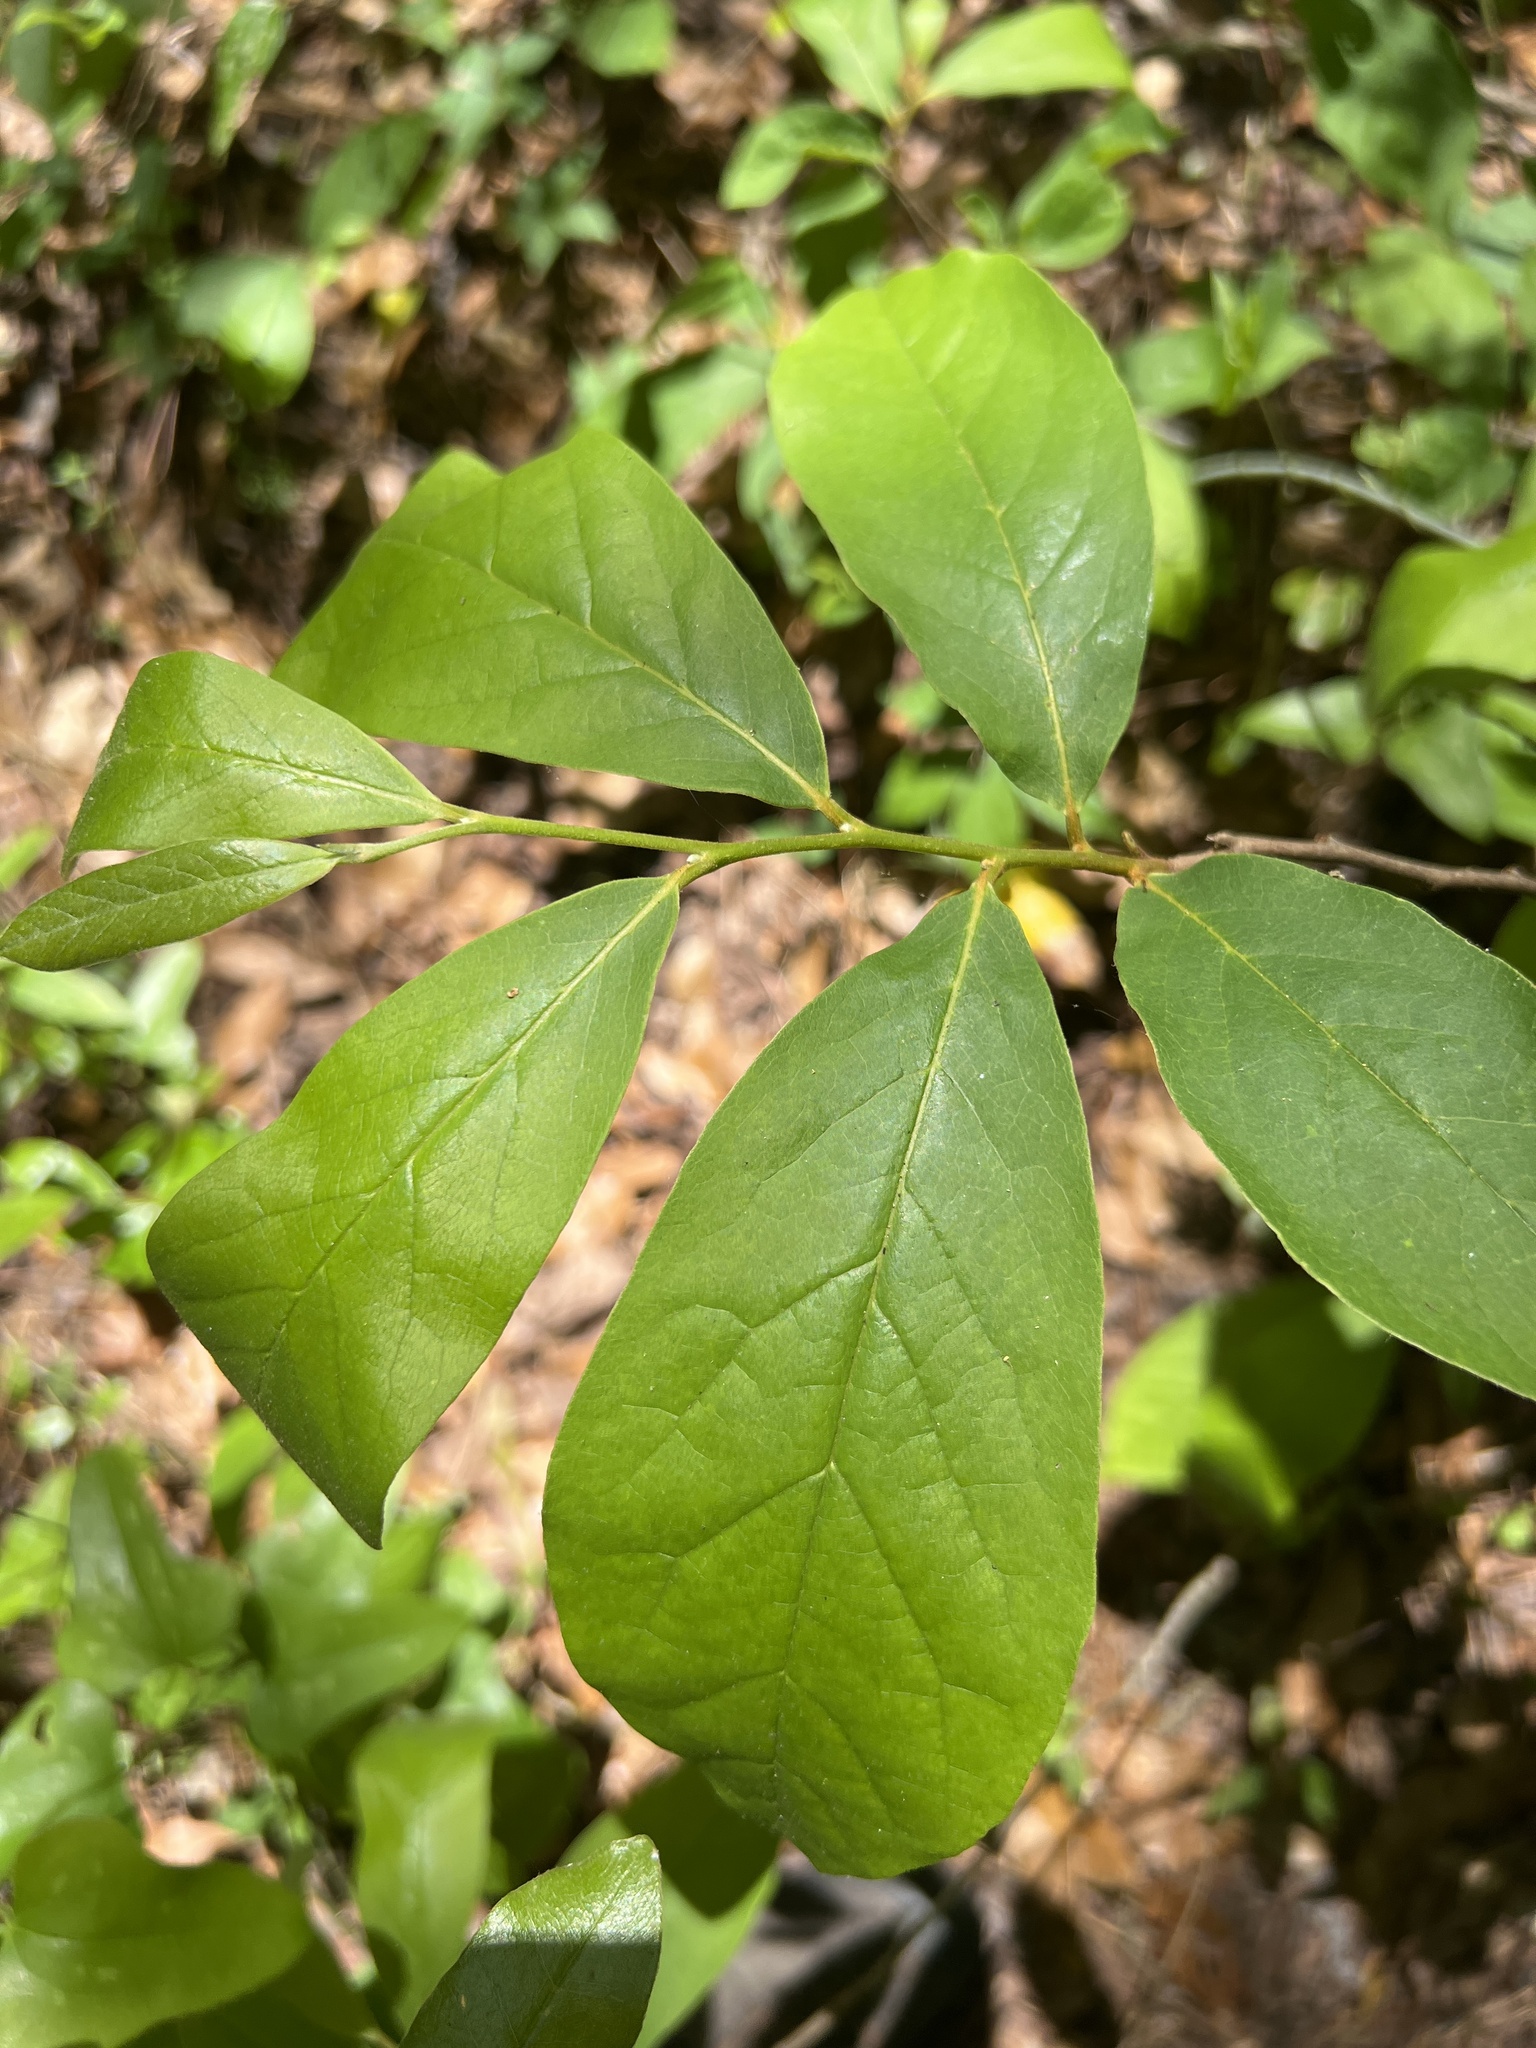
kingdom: Plantae
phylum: Tracheophyta
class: Magnoliopsida
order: Magnoliales
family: Annonaceae
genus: Asimina
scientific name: Asimina parviflora
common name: Dwarf pawpaw
